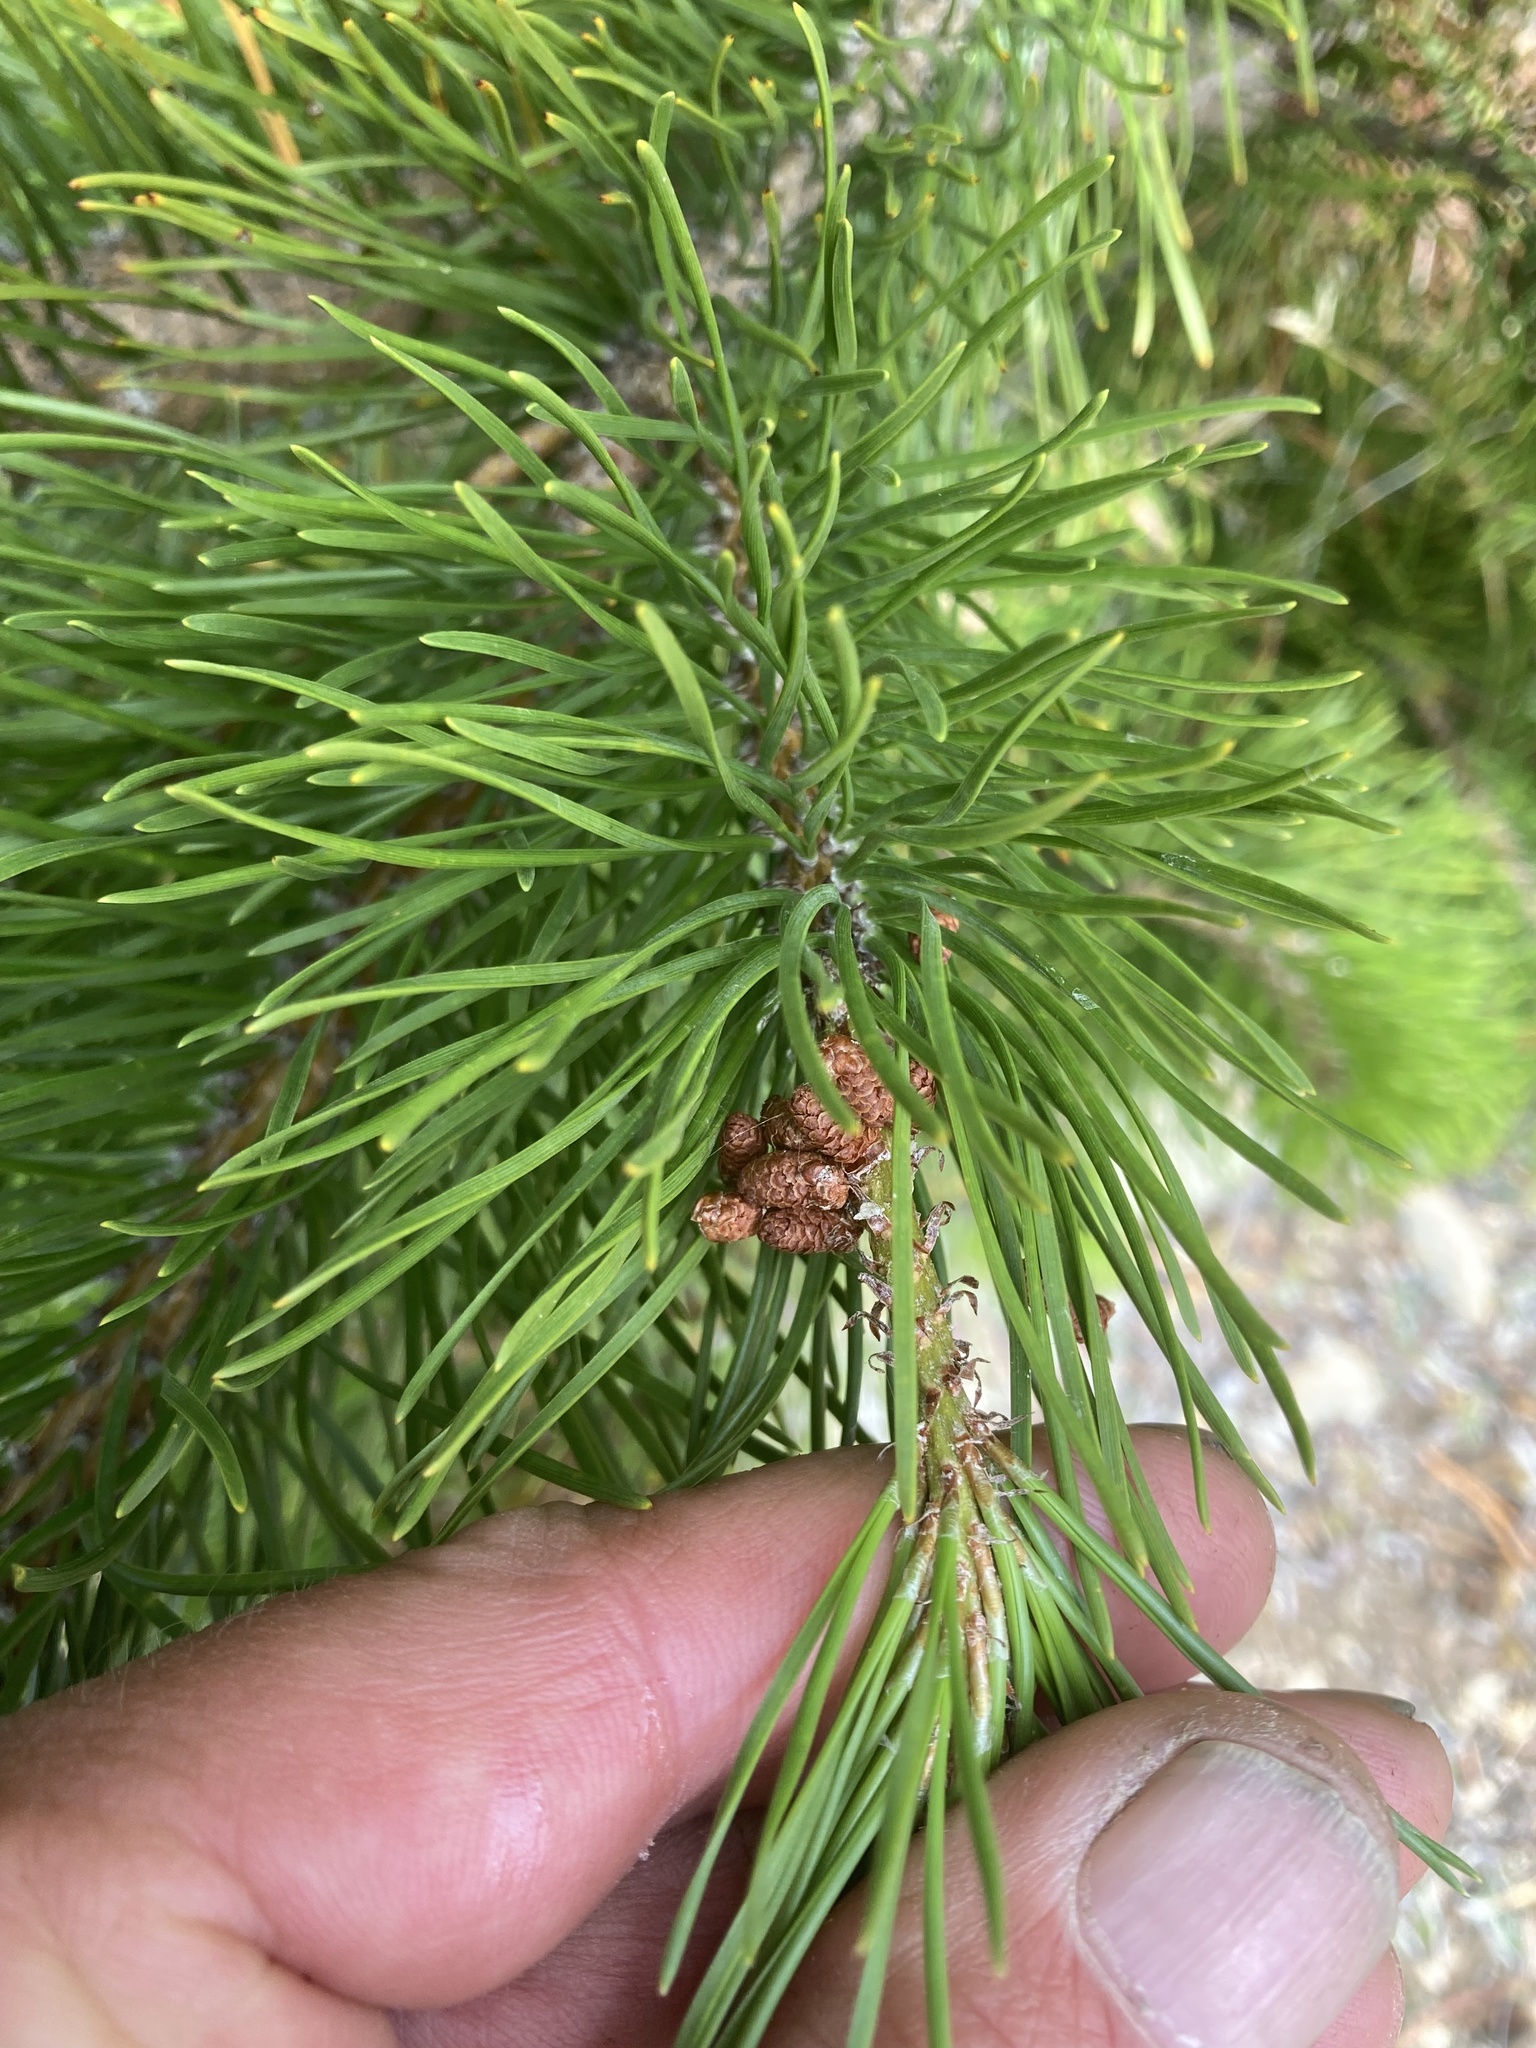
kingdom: Plantae
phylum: Tracheophyta
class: Pinopsida
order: Pinales
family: Pinaceae
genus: Pinus
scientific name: Pinus contorta
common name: Lodgepole pine
